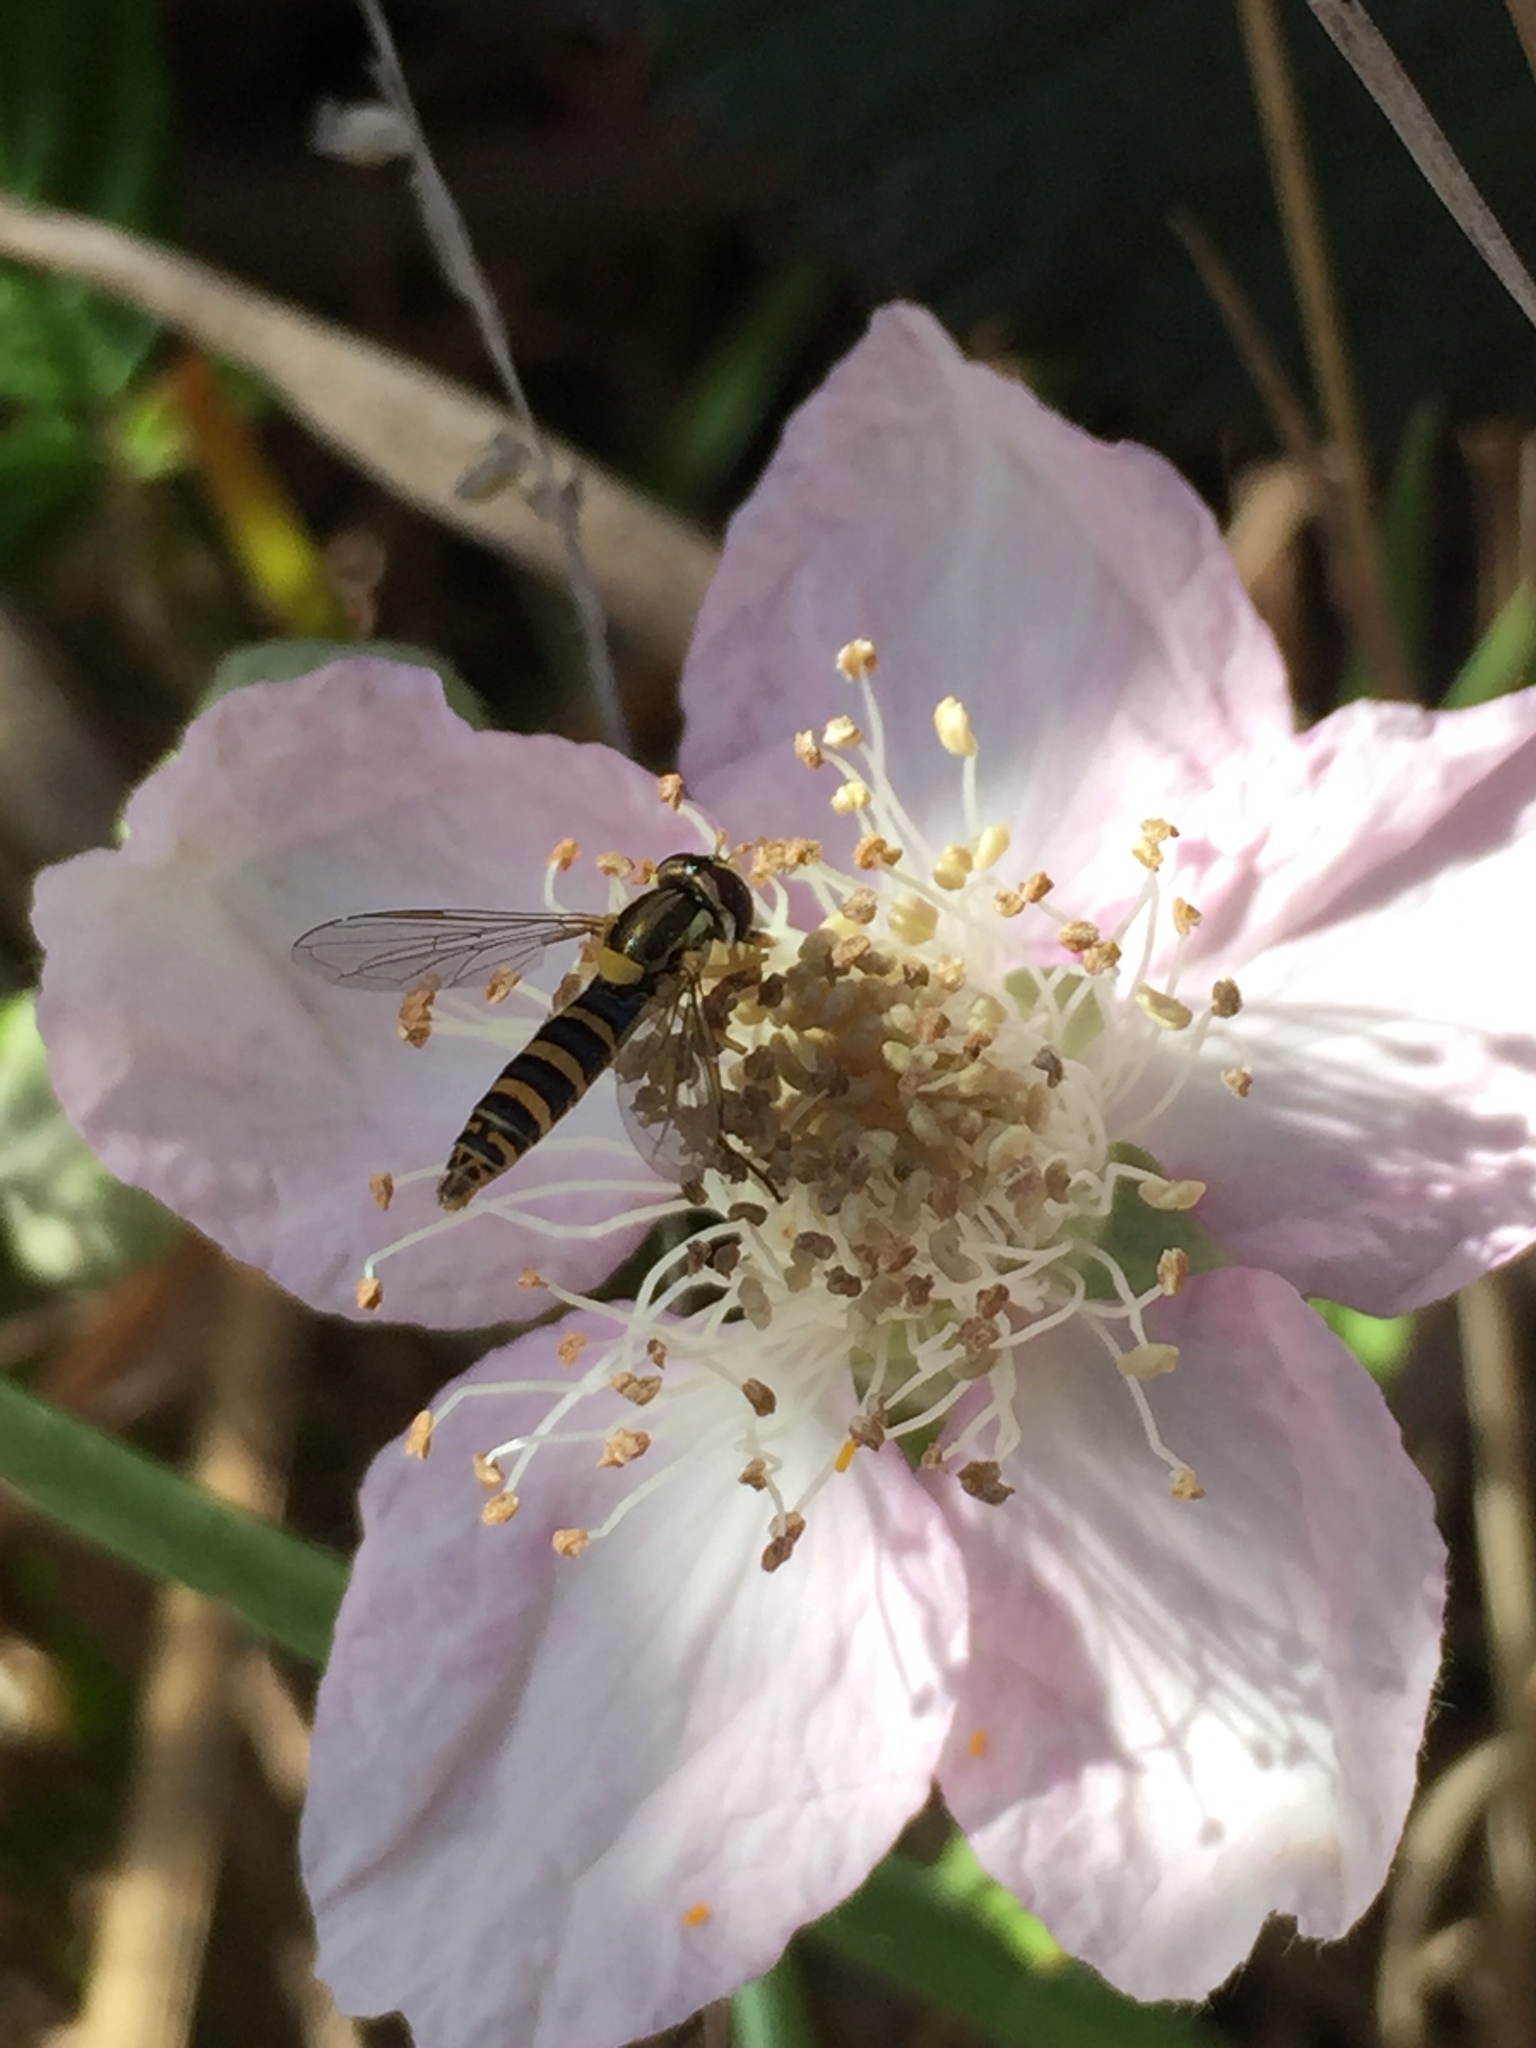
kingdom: Plantae
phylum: Tracheophyta
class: Magnoliopsida
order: Rosales
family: Rosaceae
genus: Rubus
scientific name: Rubus armeniacus
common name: Himalayan blackberry
